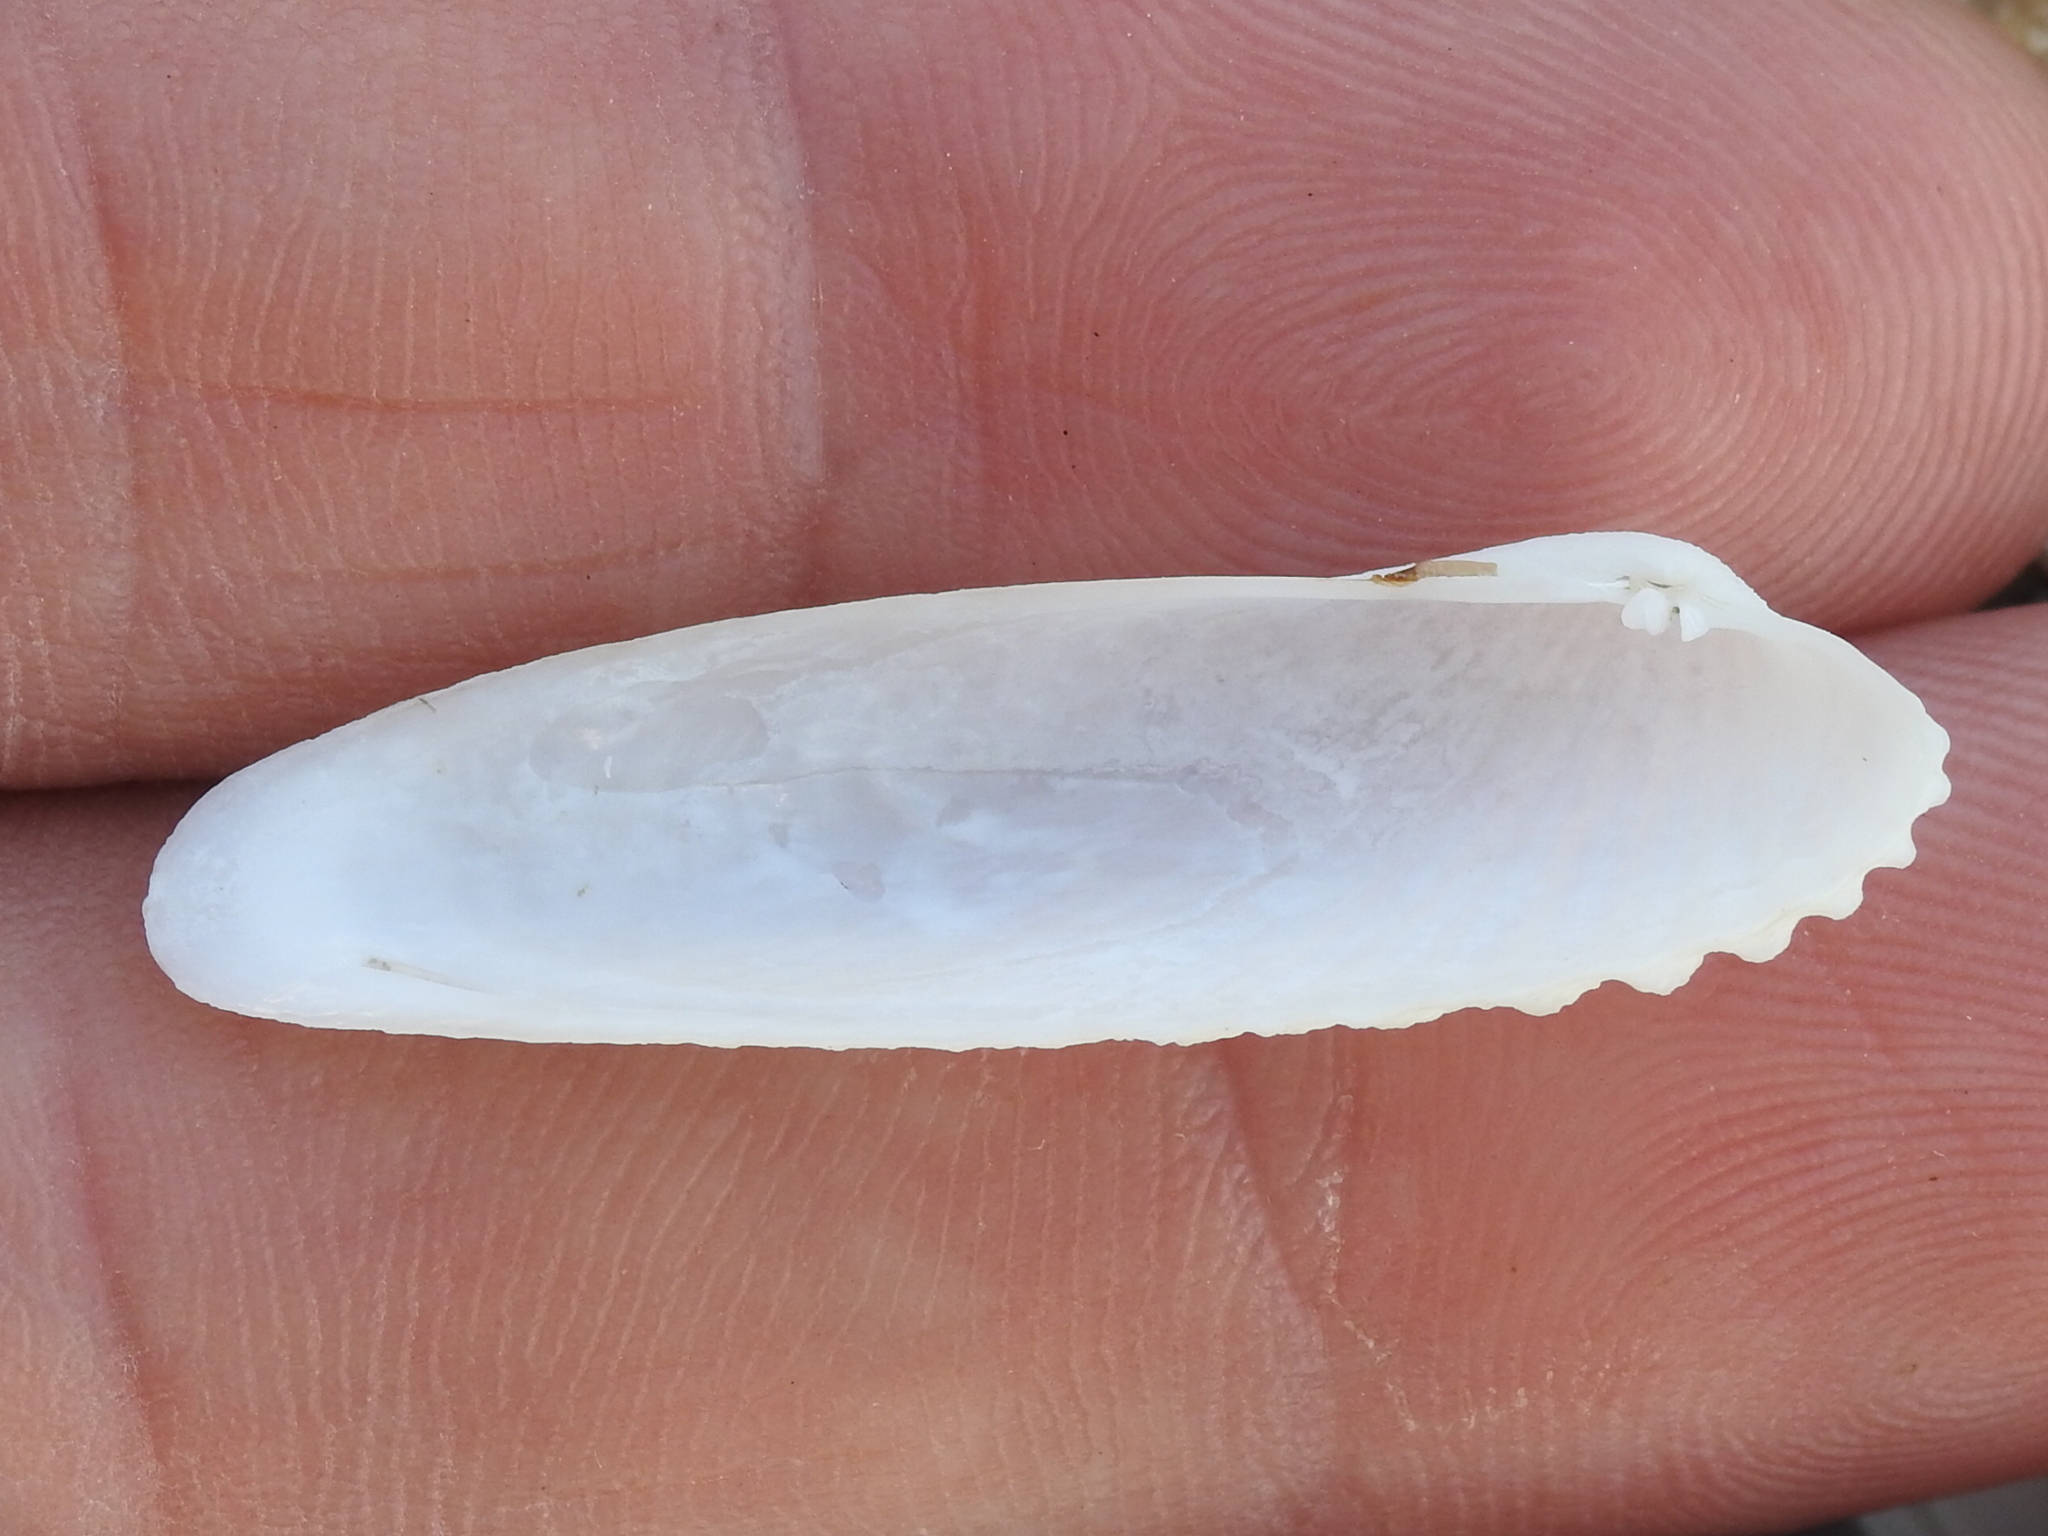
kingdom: Animalia
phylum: Mollusca
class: Bivalvia
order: Venerida
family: Veneridae
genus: Petricolaria
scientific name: Petricolaria pholadiformis
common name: American piddock
